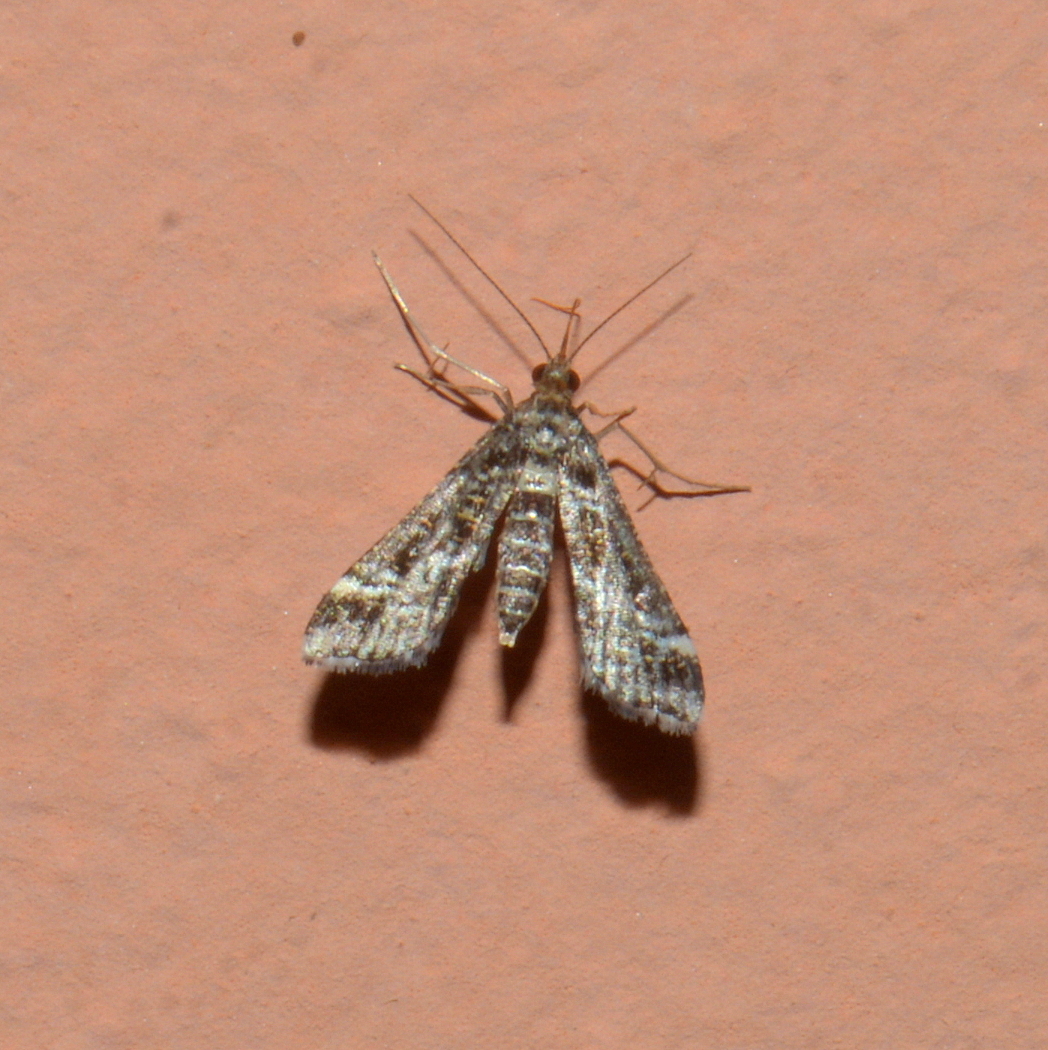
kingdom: Animalia
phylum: Arthropoda
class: Insecta
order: Lepidoptera
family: Crambidae
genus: Diasemiopsis
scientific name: Diasemiopsis ramburialis
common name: Vagrant china-mark
